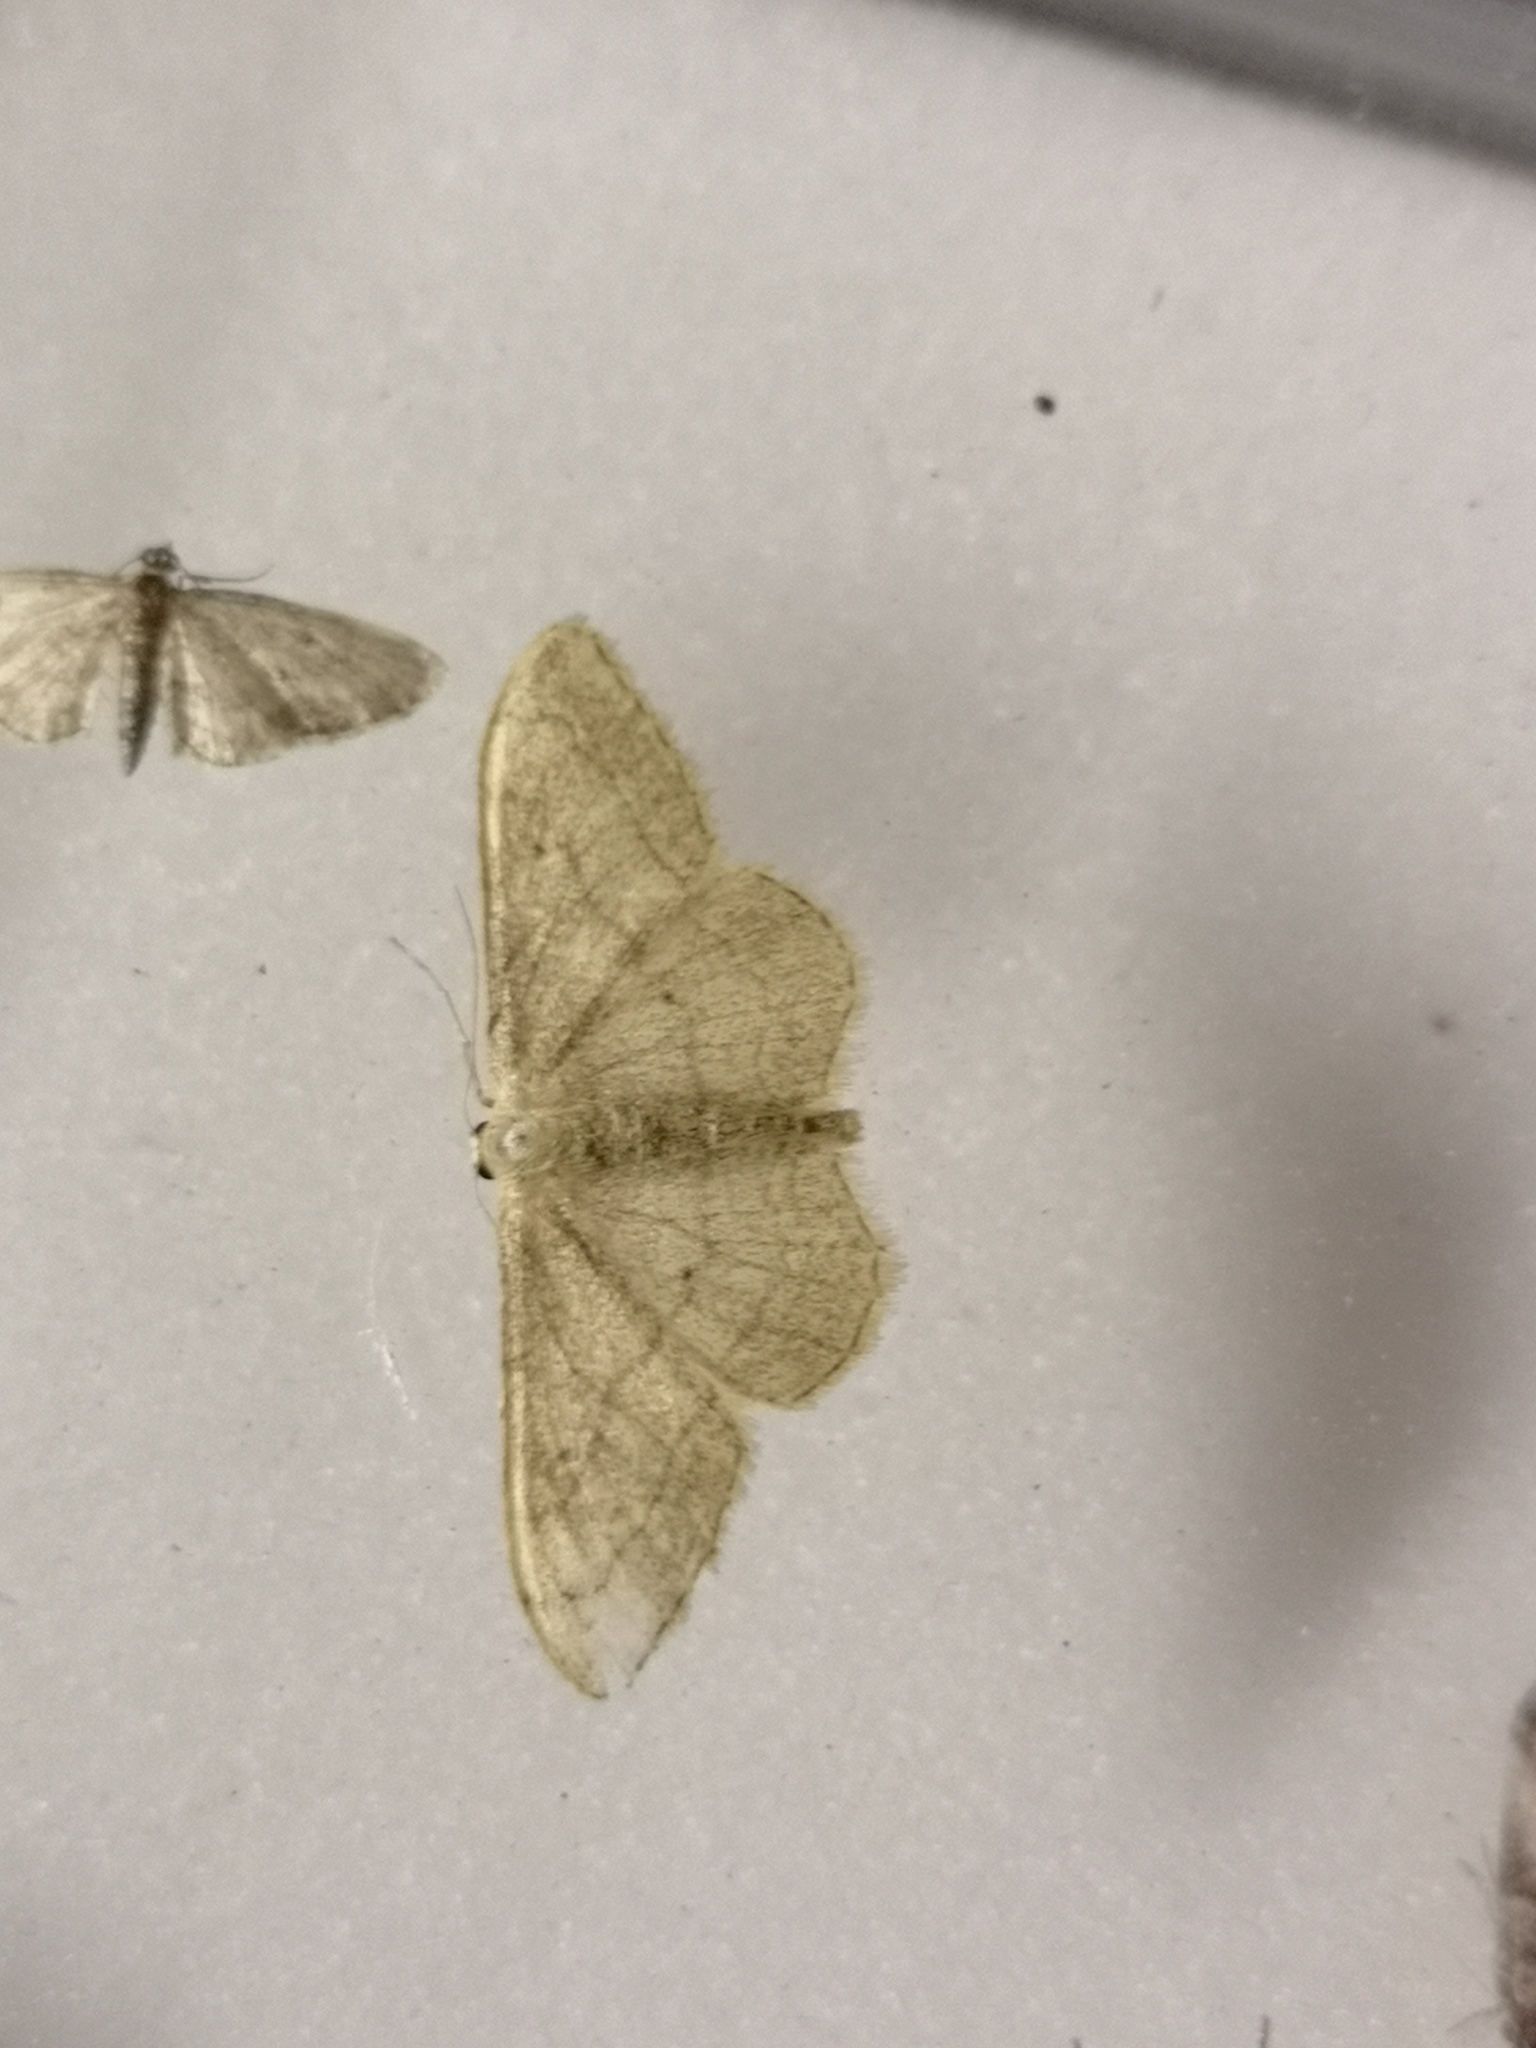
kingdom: Animalia
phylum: Arthropoda
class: Insecta
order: Lepidoptera
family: Geometridae
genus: Idaea
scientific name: Idaea aversata
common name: Riband wave
